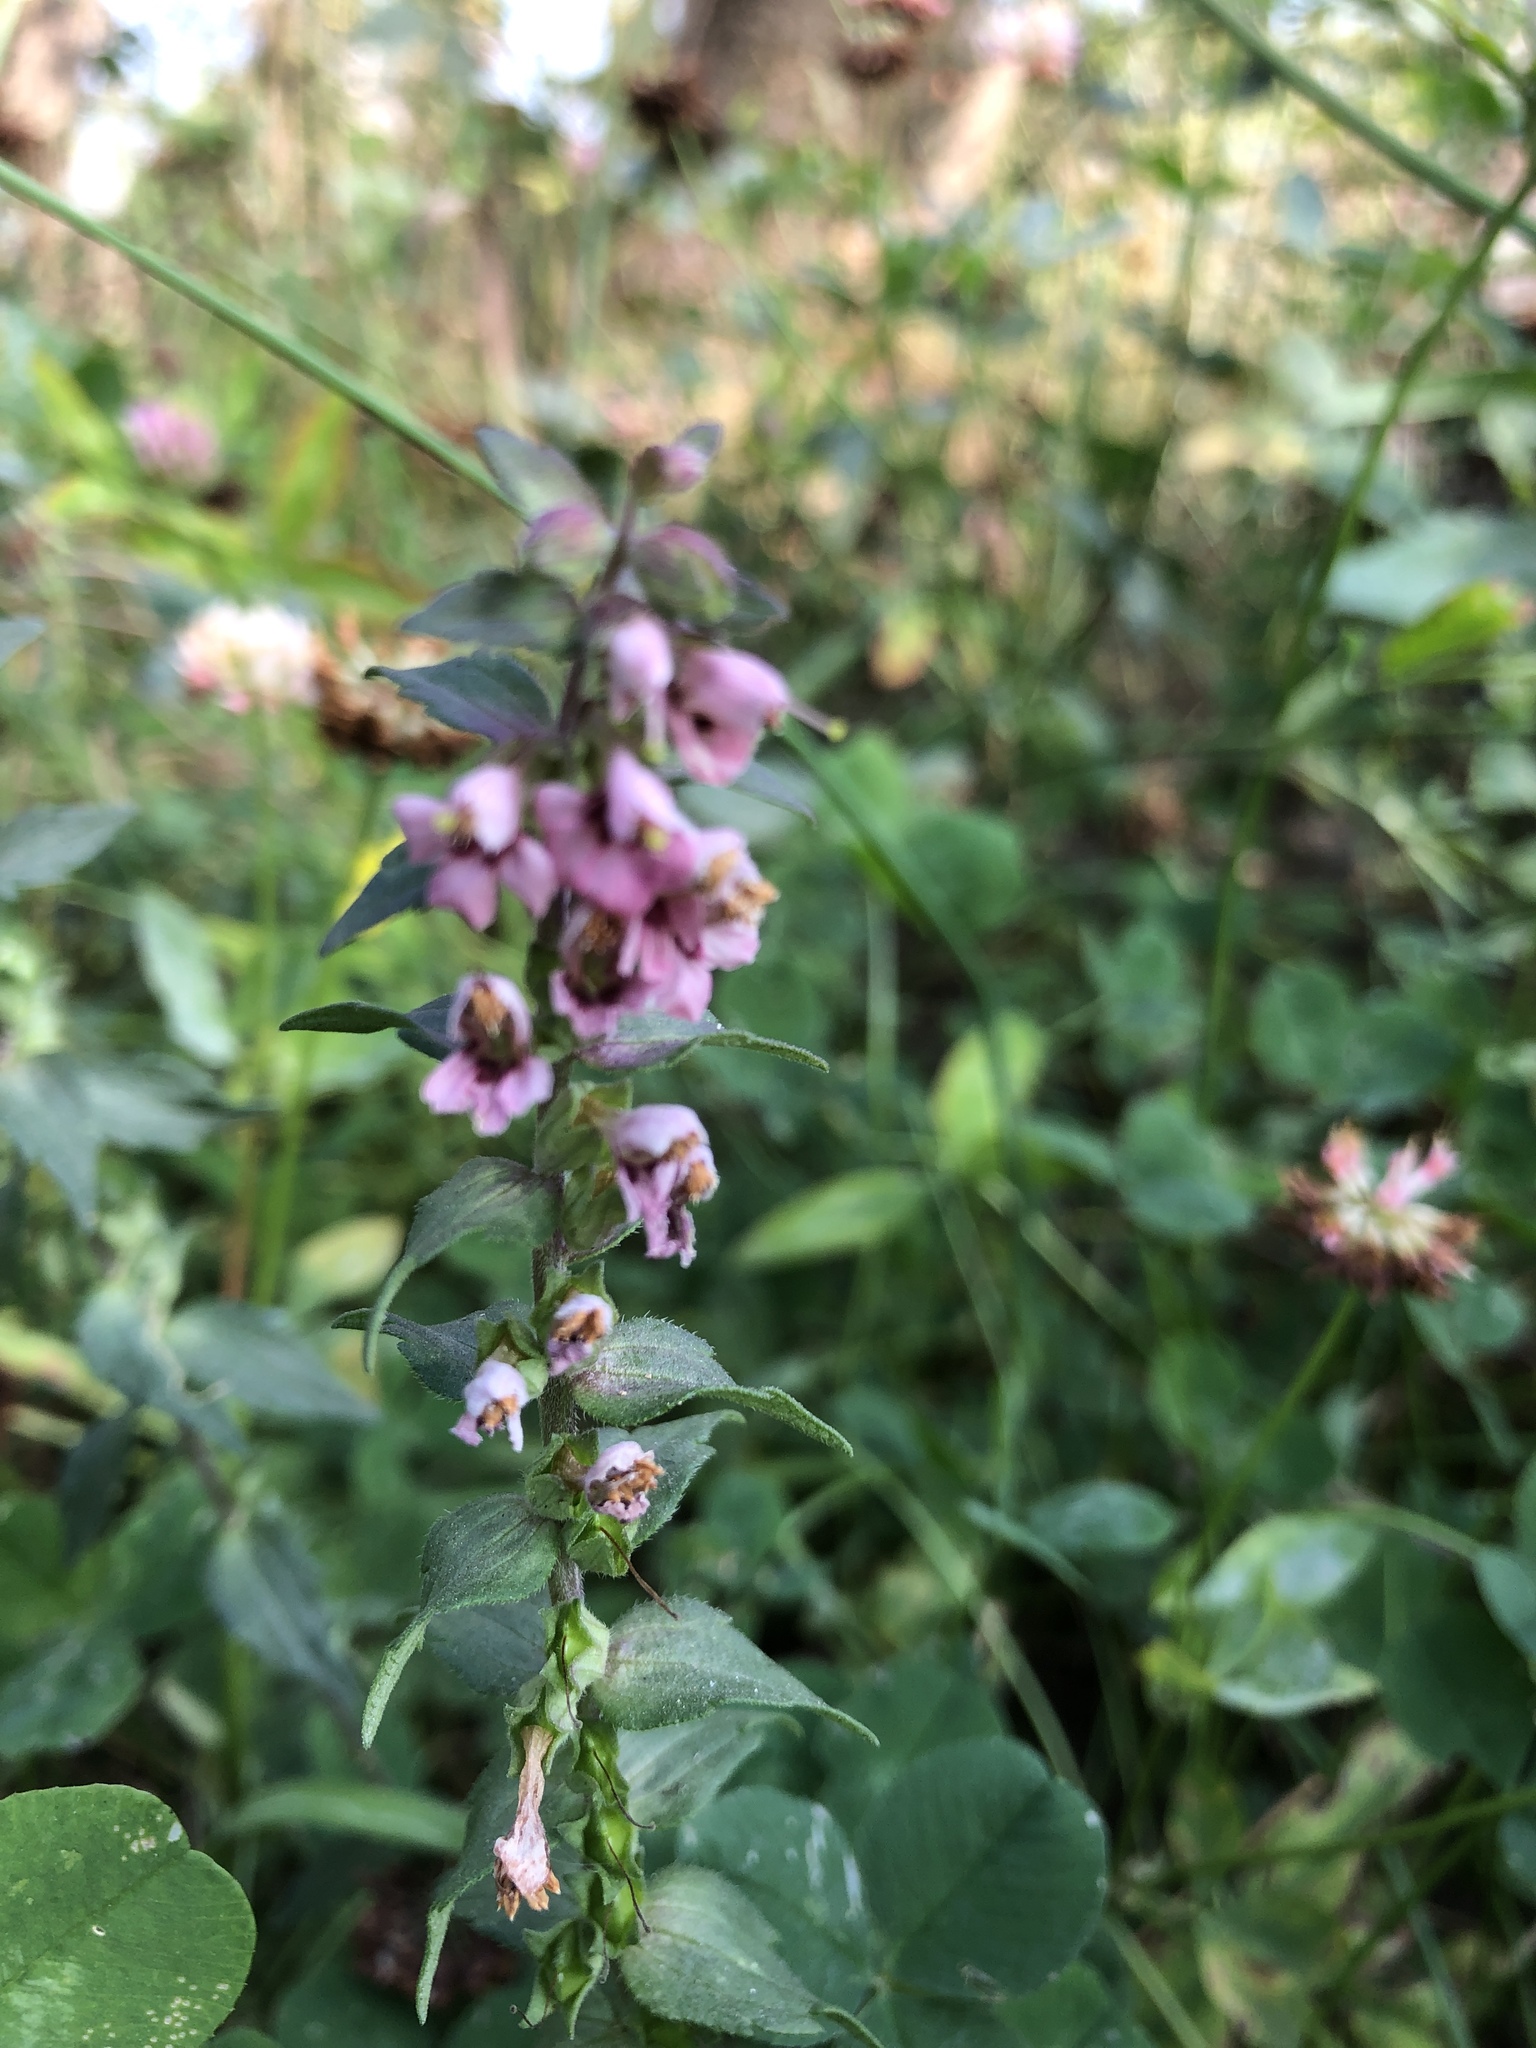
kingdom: Plantae
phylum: Tracheophyta
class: Magnoliopsida
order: Lamiales
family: Orobanchaceae
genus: Odontites
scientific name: Odontites vulgaris
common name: Broomrape
